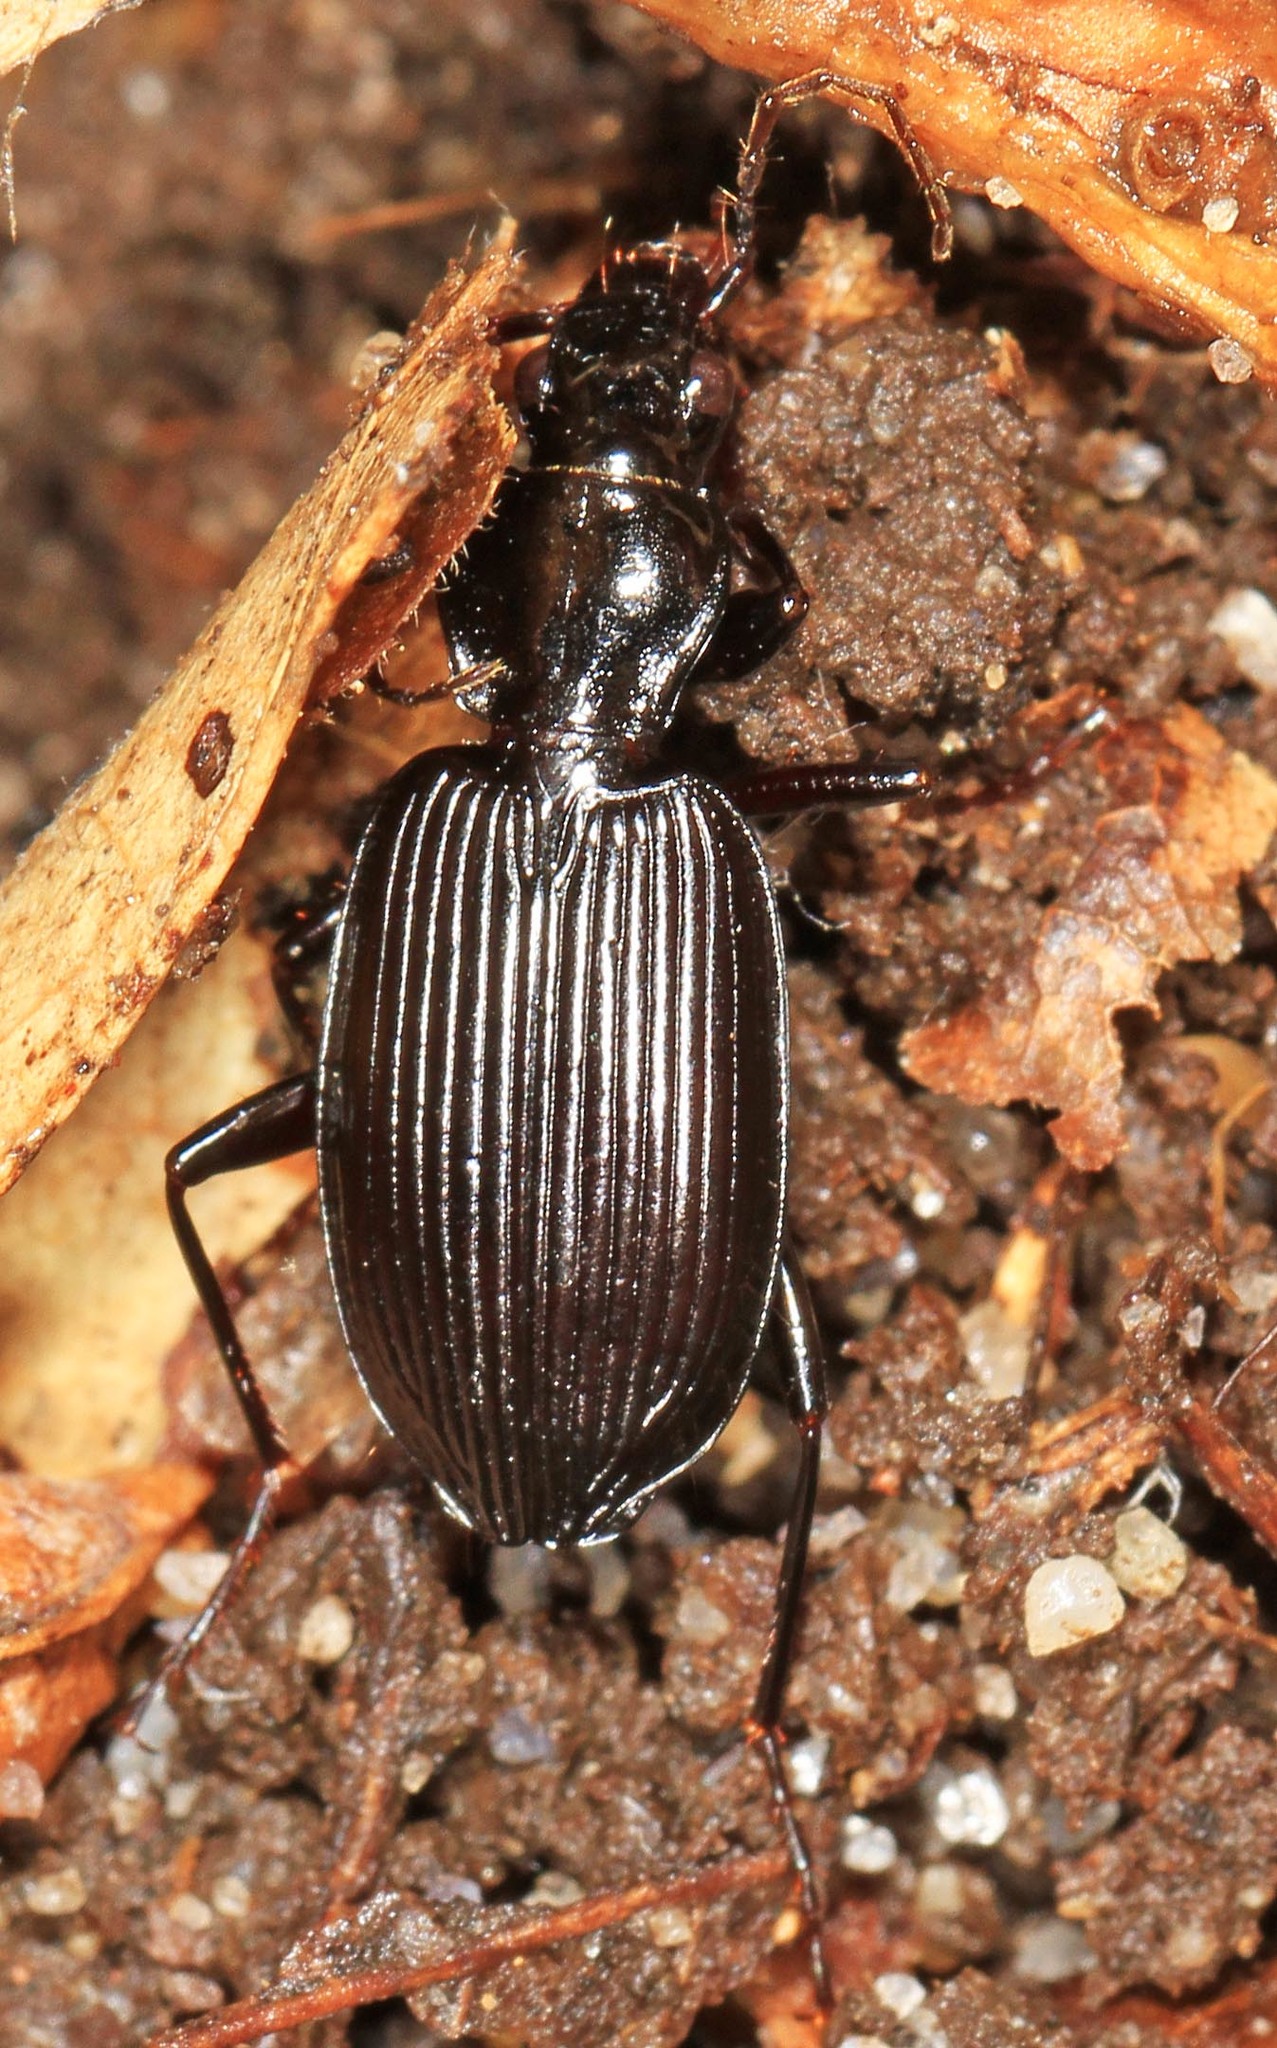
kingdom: Animalia
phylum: Arthropoda
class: Insecta
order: Coleoptera
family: Carabidae
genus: Platynus
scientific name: Platynus decentis
